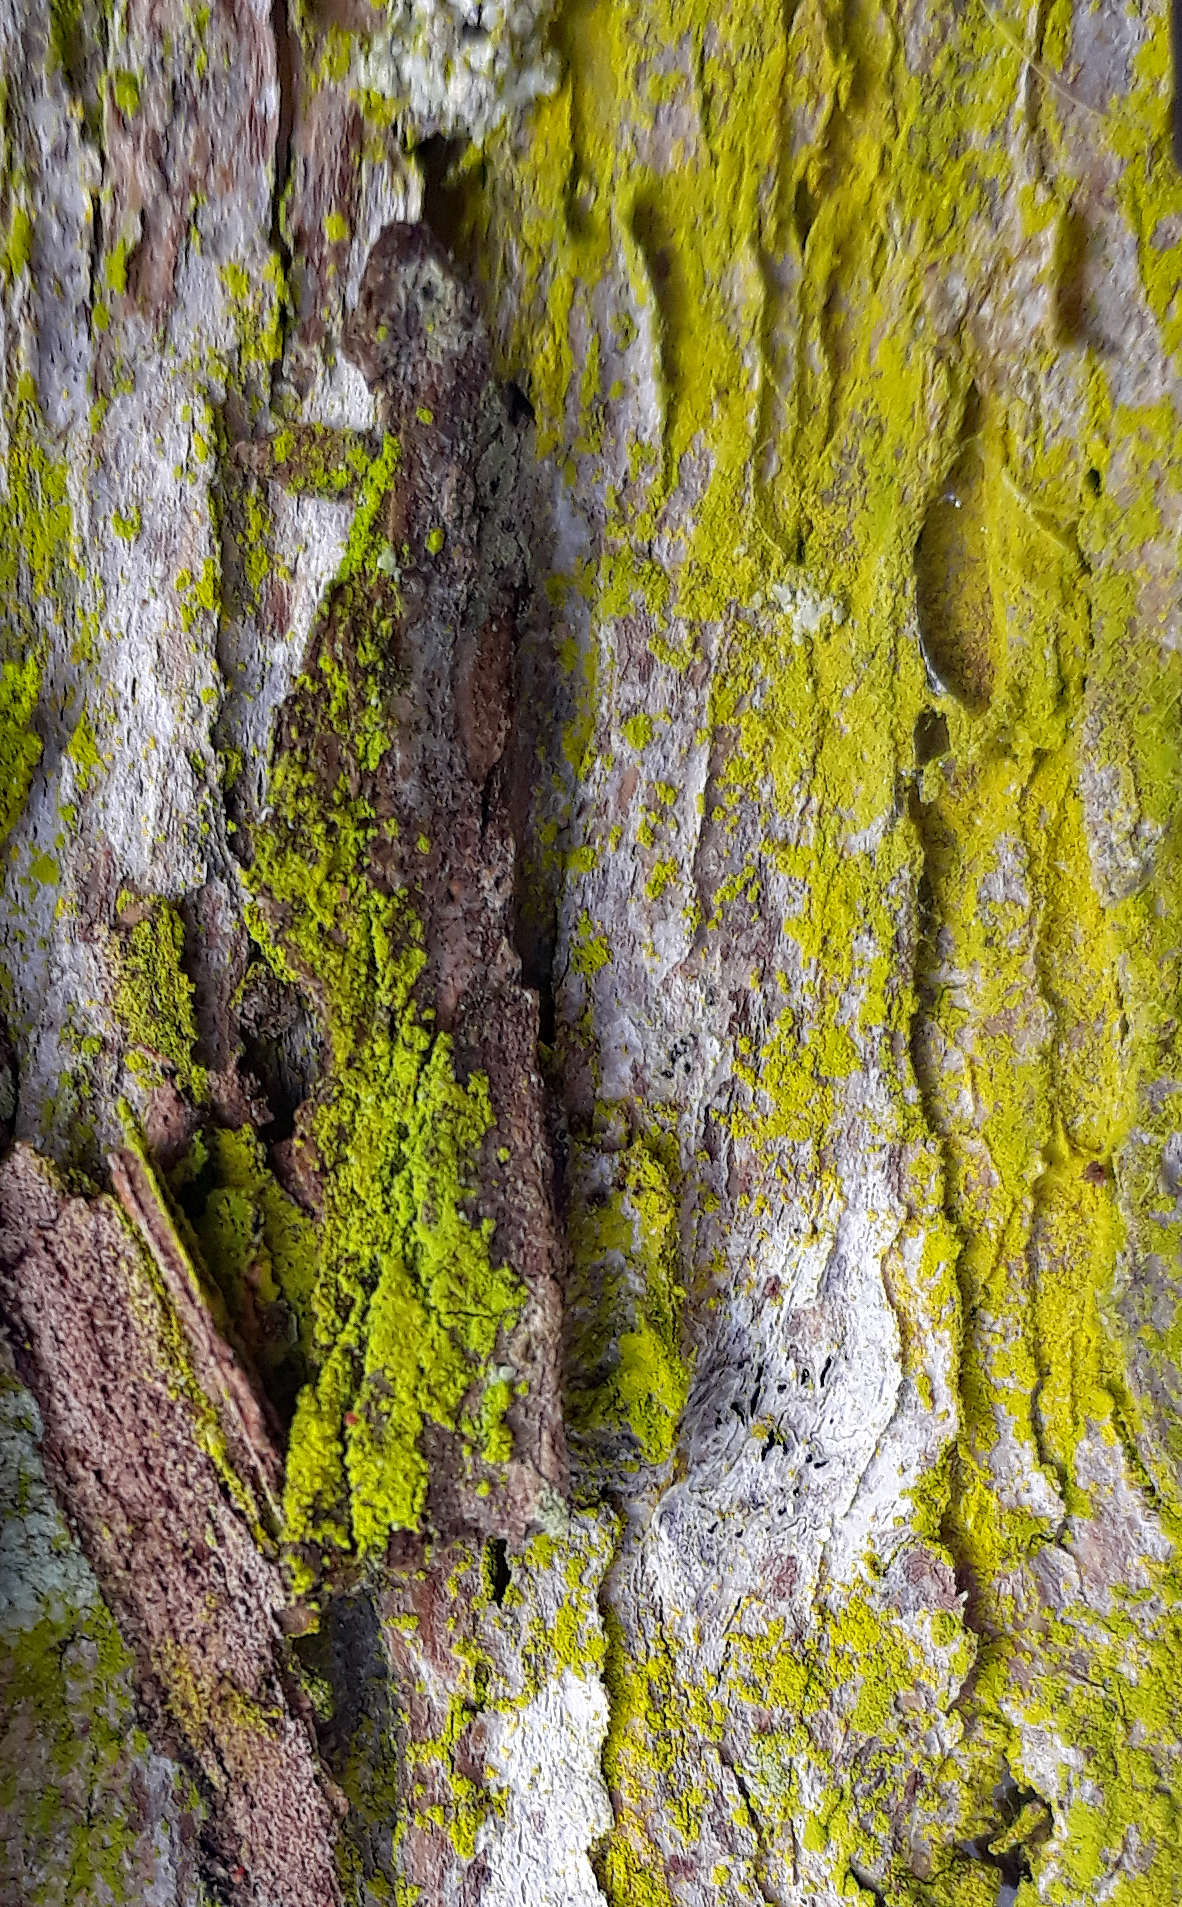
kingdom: Fungi
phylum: Ascomycota
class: Arthoniomycetes
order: Arthoniales
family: Chrysotrichaceae
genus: Chrysothrix
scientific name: Chrysothrix xanthina
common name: Common gold-dust
